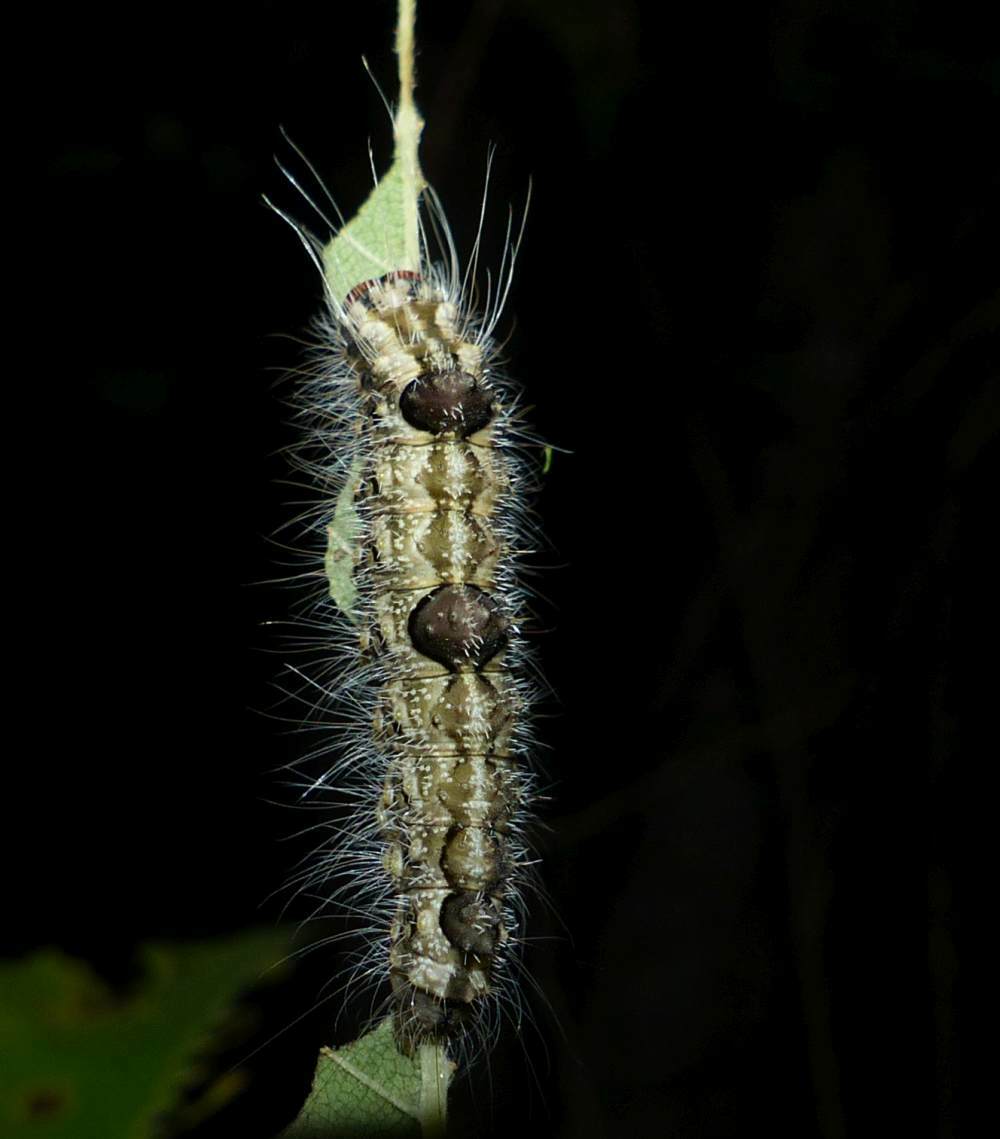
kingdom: Animalia
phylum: Arthropoda
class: Insecta
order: Lepidoptera
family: Noctuidae
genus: Acronicta
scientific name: Acronicta morula
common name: Ochre dagger
